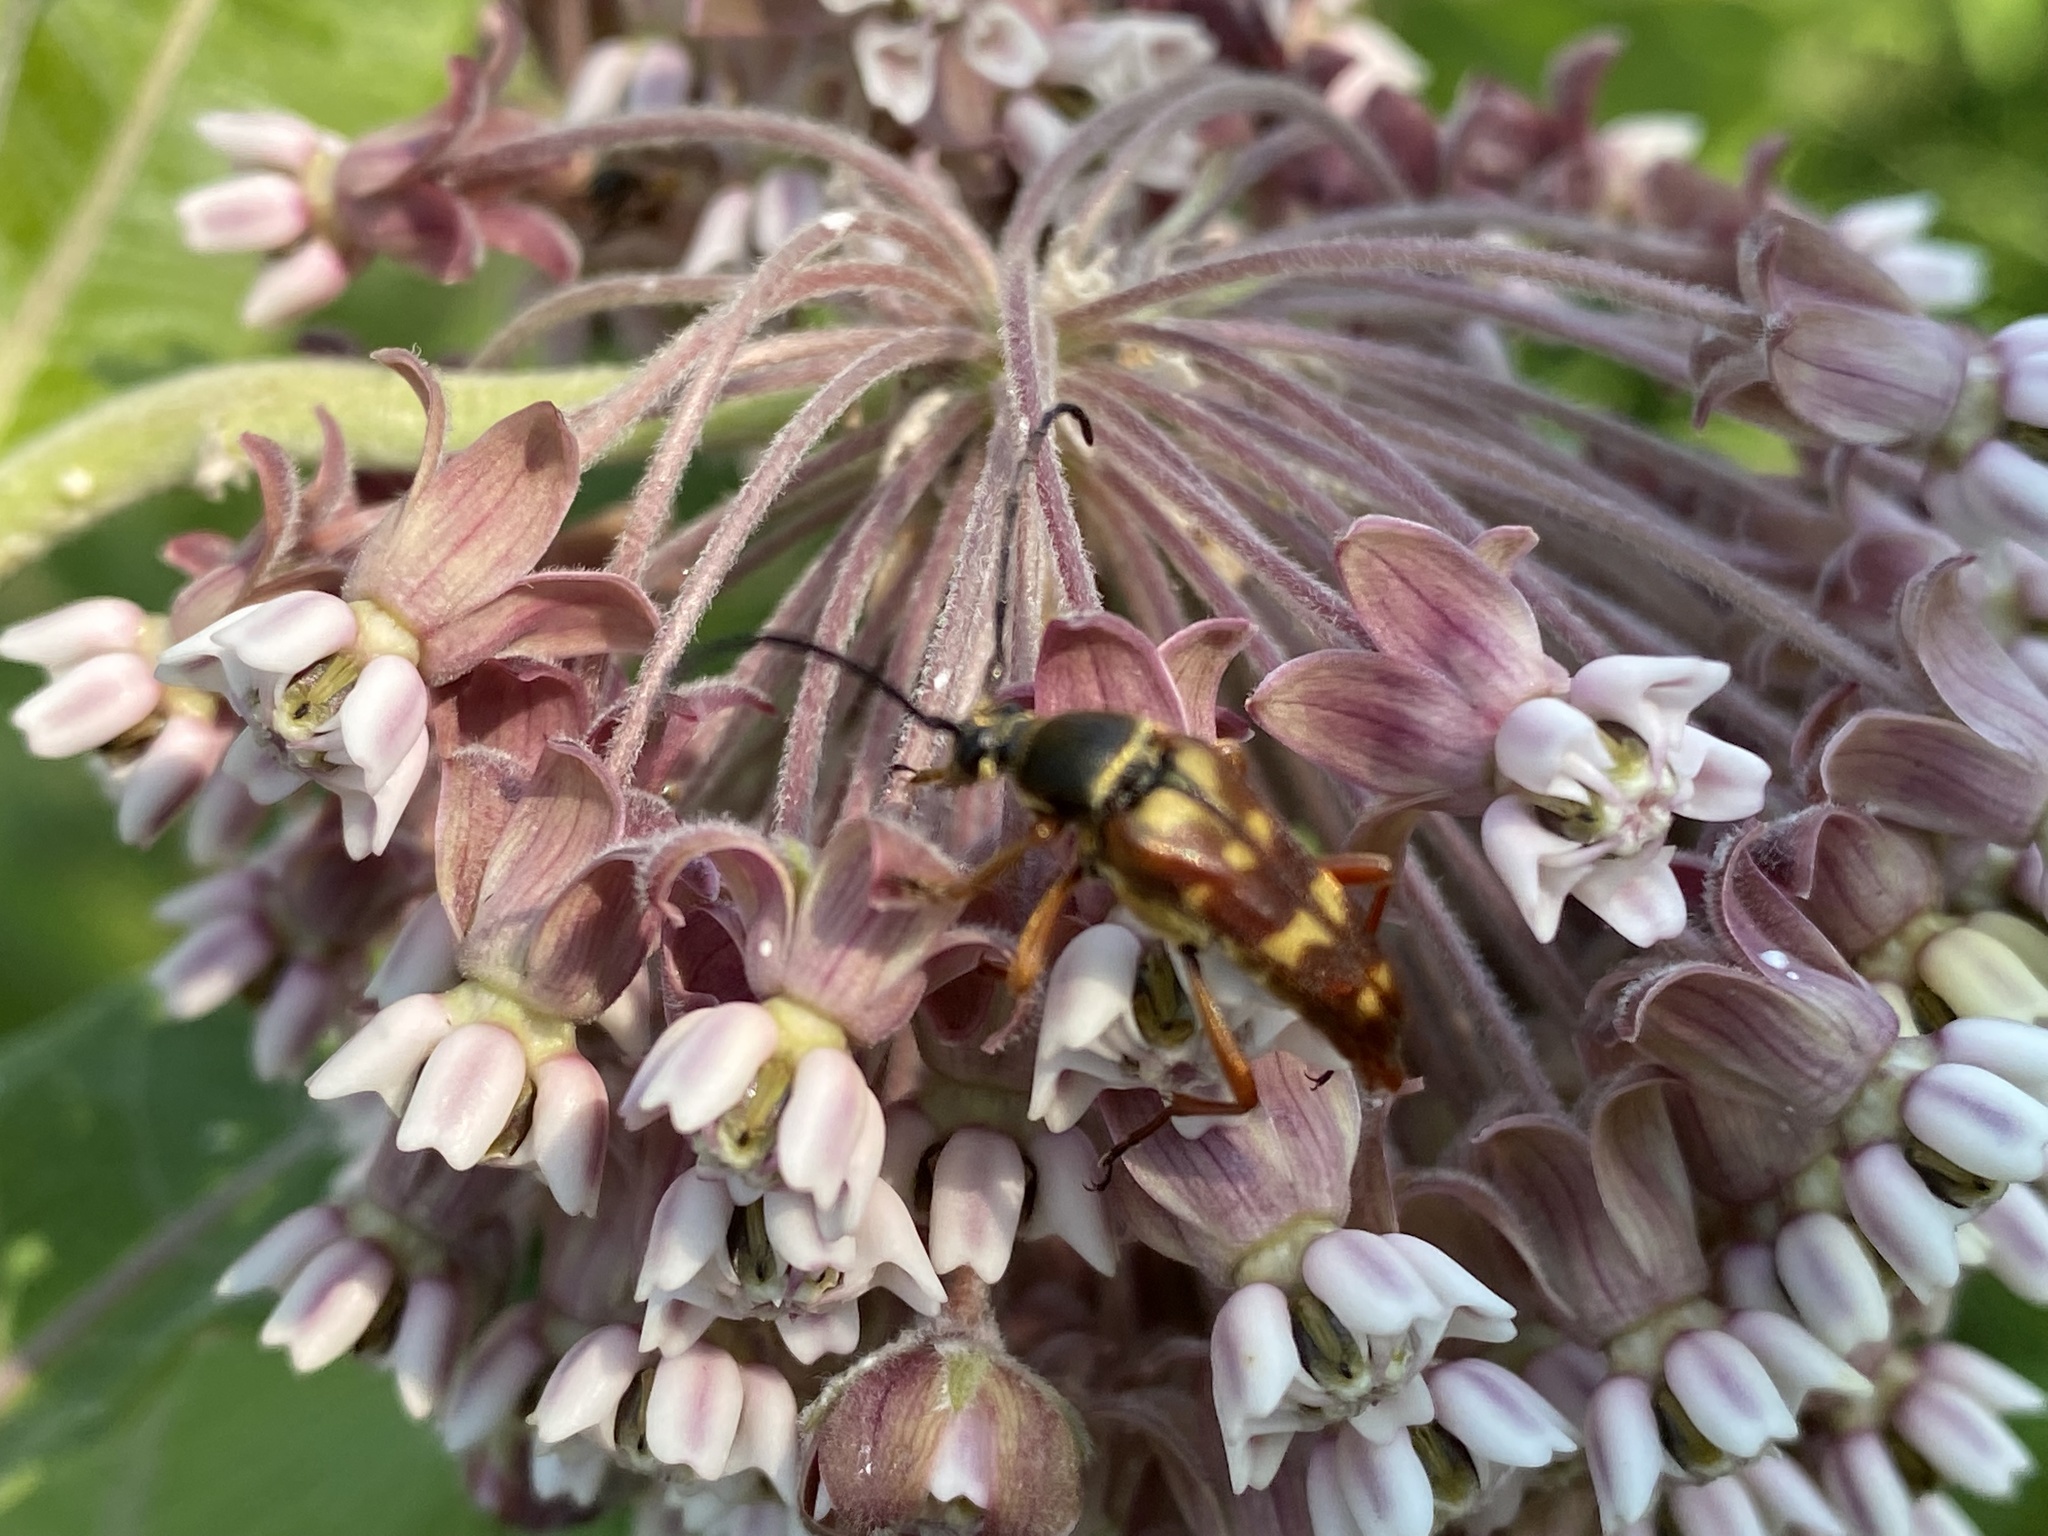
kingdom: Animalia
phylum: Arthropoda
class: Insecta
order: Coleoptera
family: Cerambycidae
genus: Typocerus
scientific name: Typocerus velutinus
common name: Banded longhorn beetle
